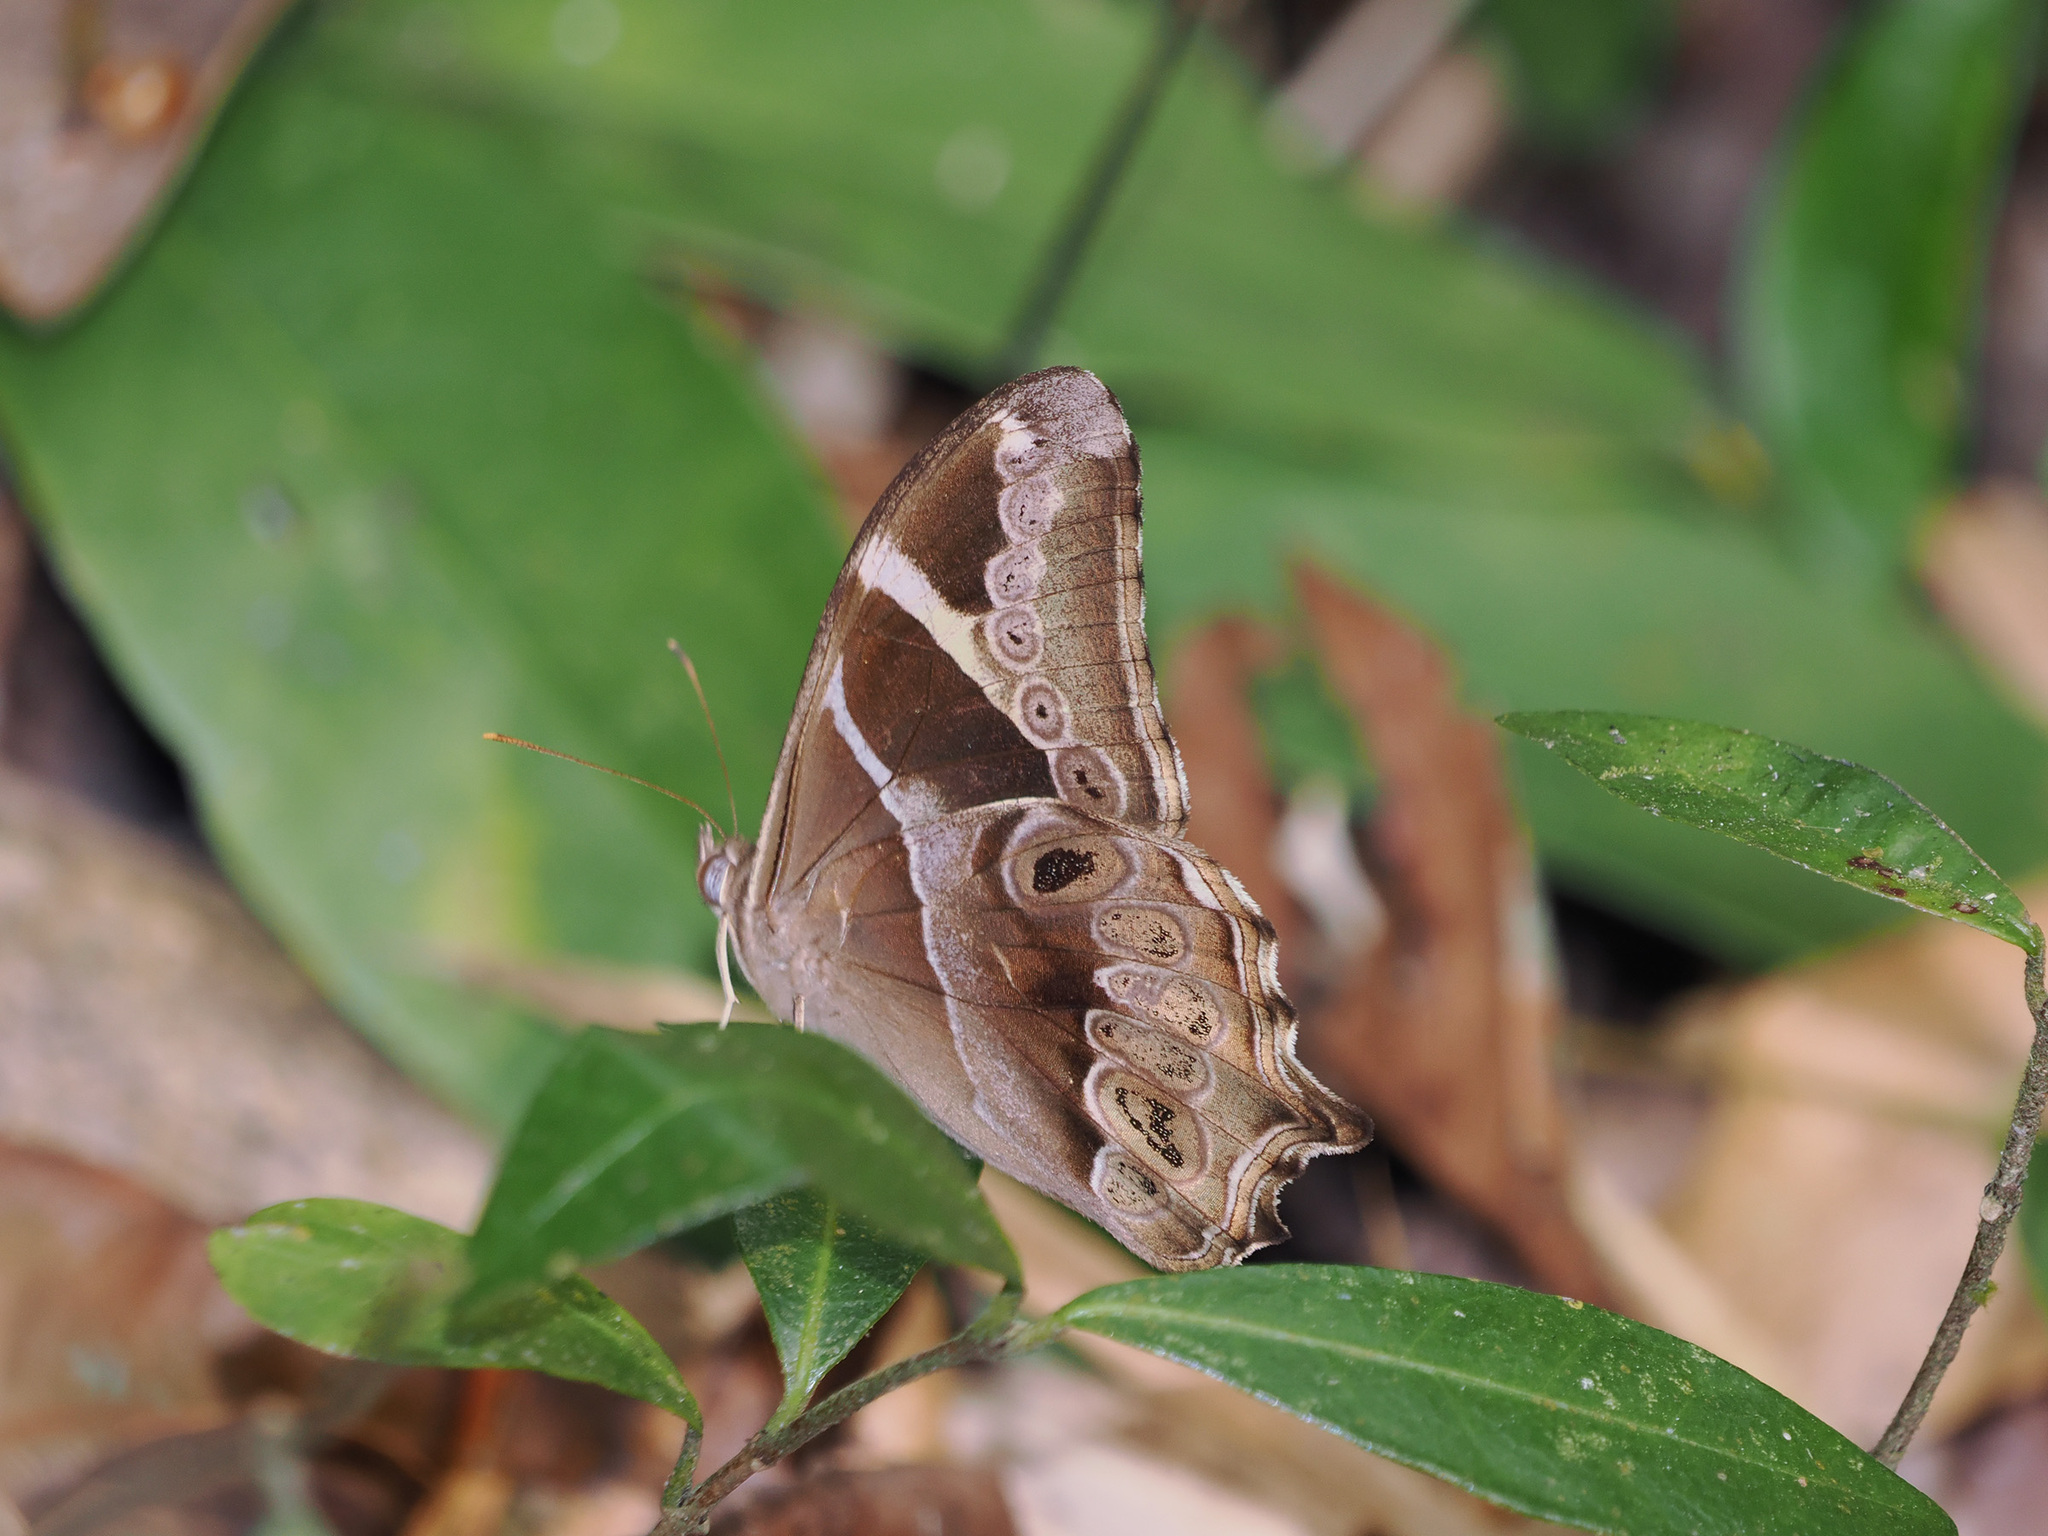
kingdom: Animalia
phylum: Arthropoda
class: Insecta
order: Lepidoptera
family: Nymphalidae
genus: Lethe
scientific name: Lethe europa
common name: Bamboo treebrown
